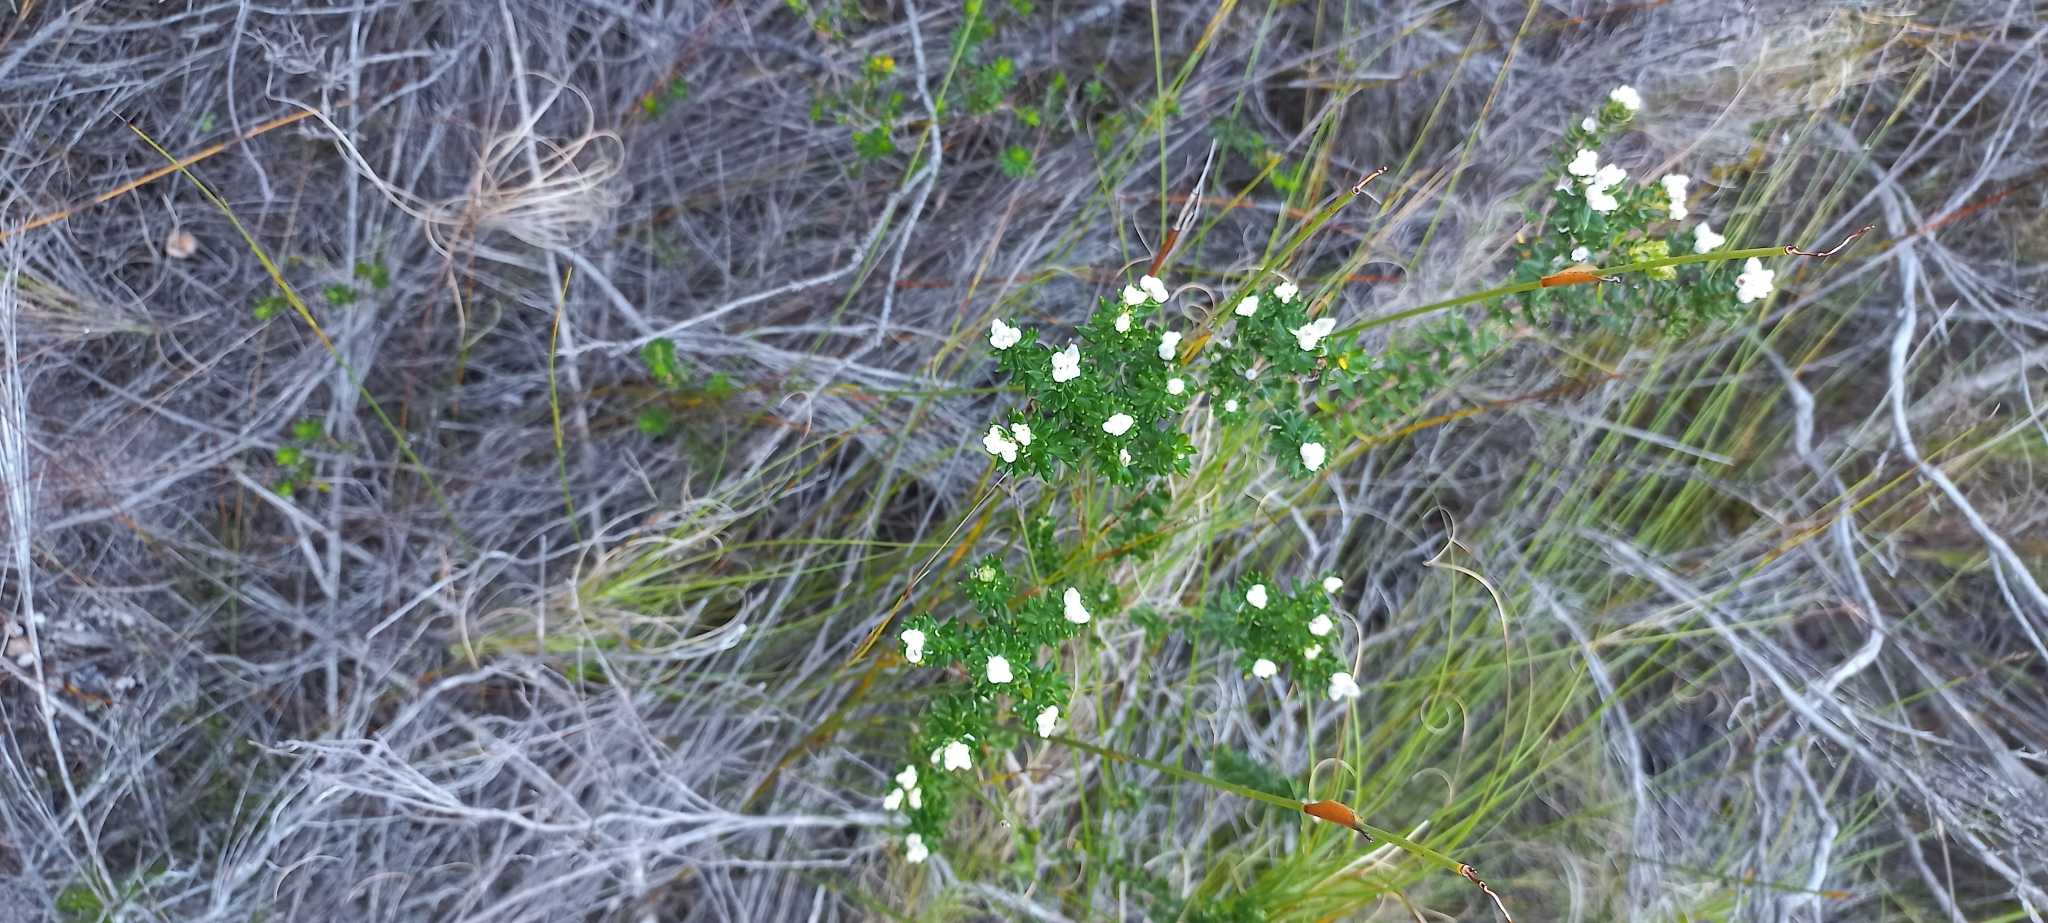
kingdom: Plantae
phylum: Tracheophyta
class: Magnoliopsida
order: Rosales
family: Rhamnaceae
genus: Phylica
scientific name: Phylica lasiocarpa
